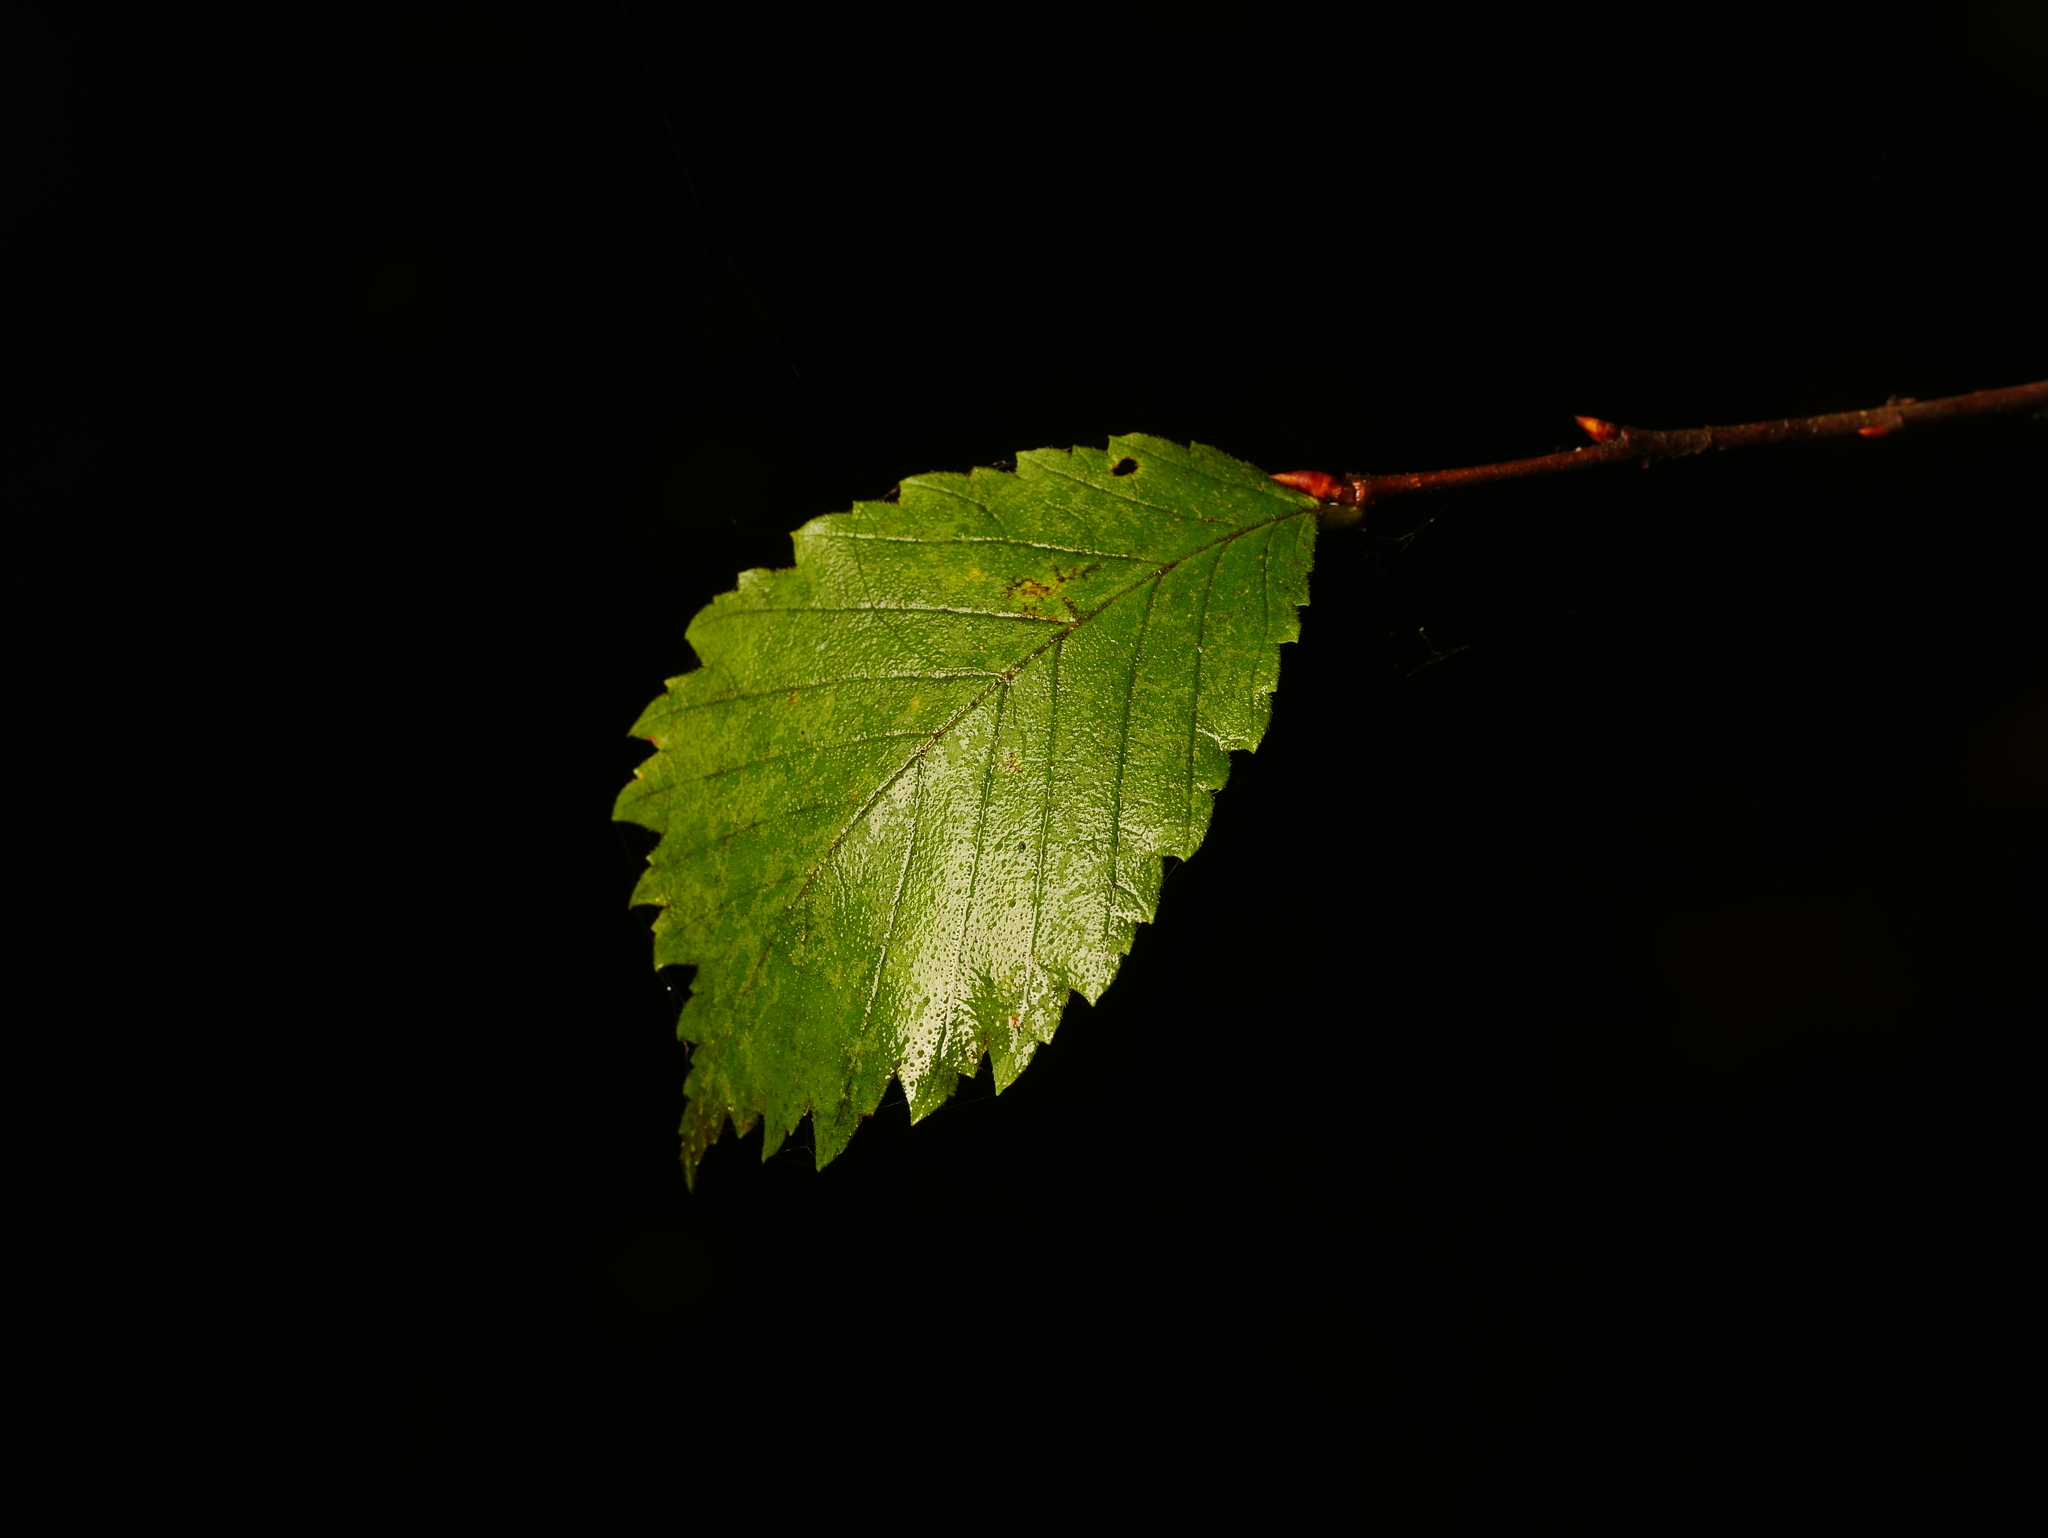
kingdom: Plantae
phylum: Tracheophyta
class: Magnoliopsida
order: Rosales
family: Ulmaceae
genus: Ulmus
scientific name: Ulmus minor
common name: Small-leaved elm
